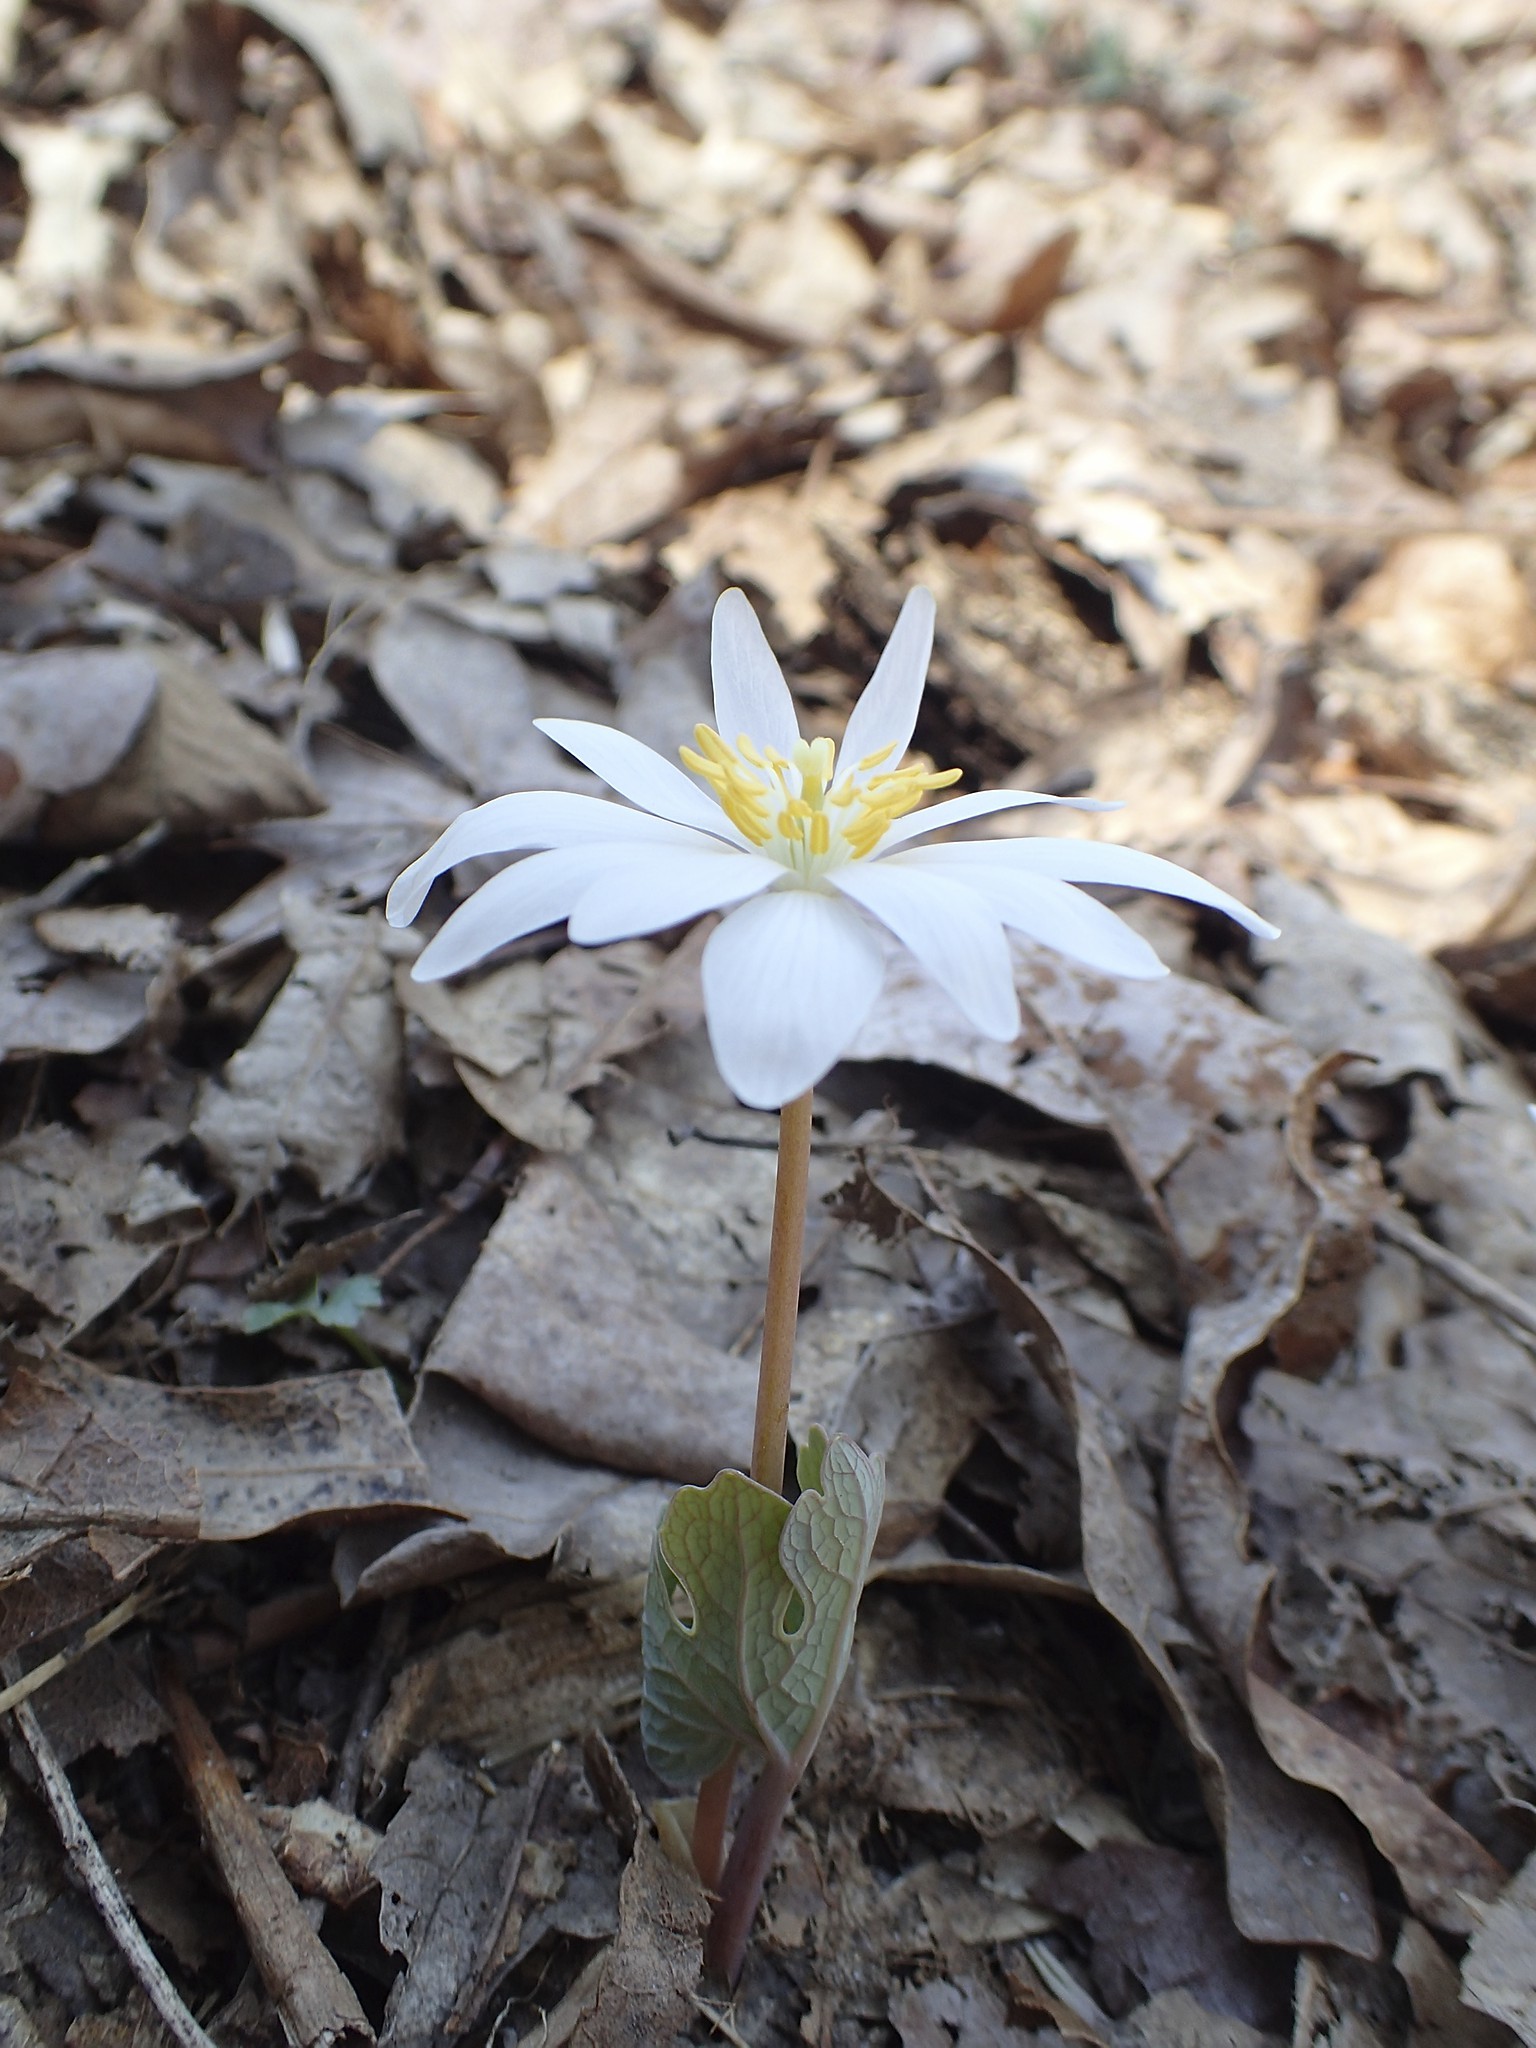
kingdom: Plantae
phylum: Tracheophyta
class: Magnoliopsida
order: Ranunculales
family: Papaveraceae
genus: Sanguinaria
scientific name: Sanguinaria canadensis
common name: Bloodroot
